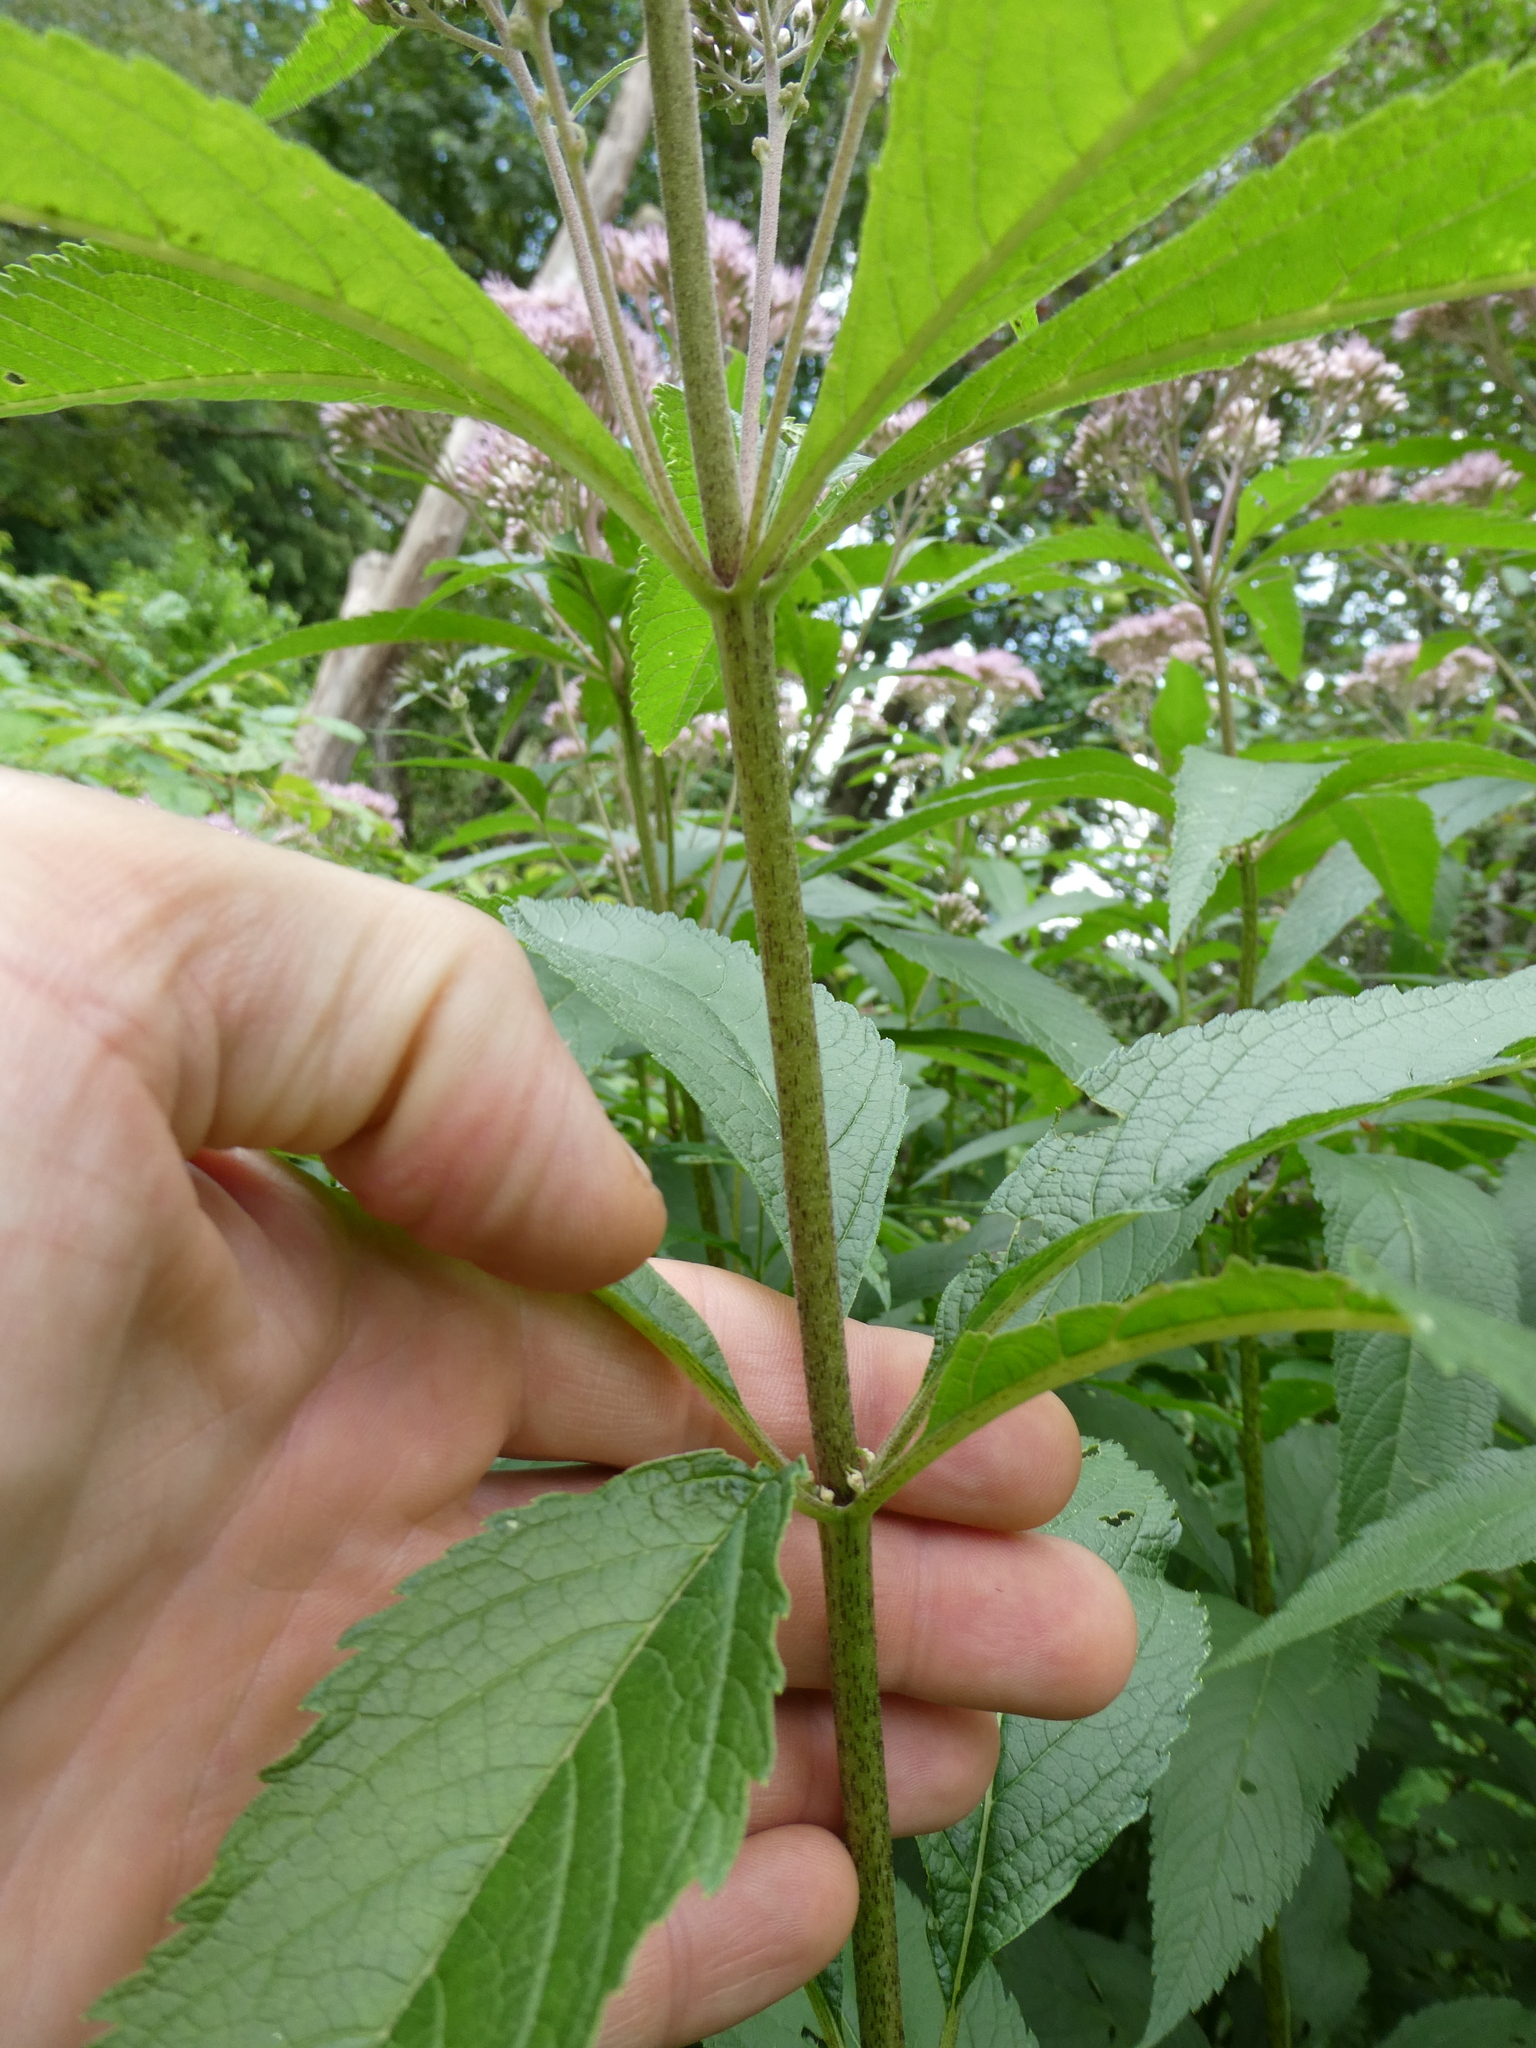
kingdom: Plantae
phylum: Tracheophyta
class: Magnoliopsida
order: Asterales
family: Asteraceae
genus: Eutrochium
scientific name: Eutrochium maculatum
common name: Spotted joe pye weed
